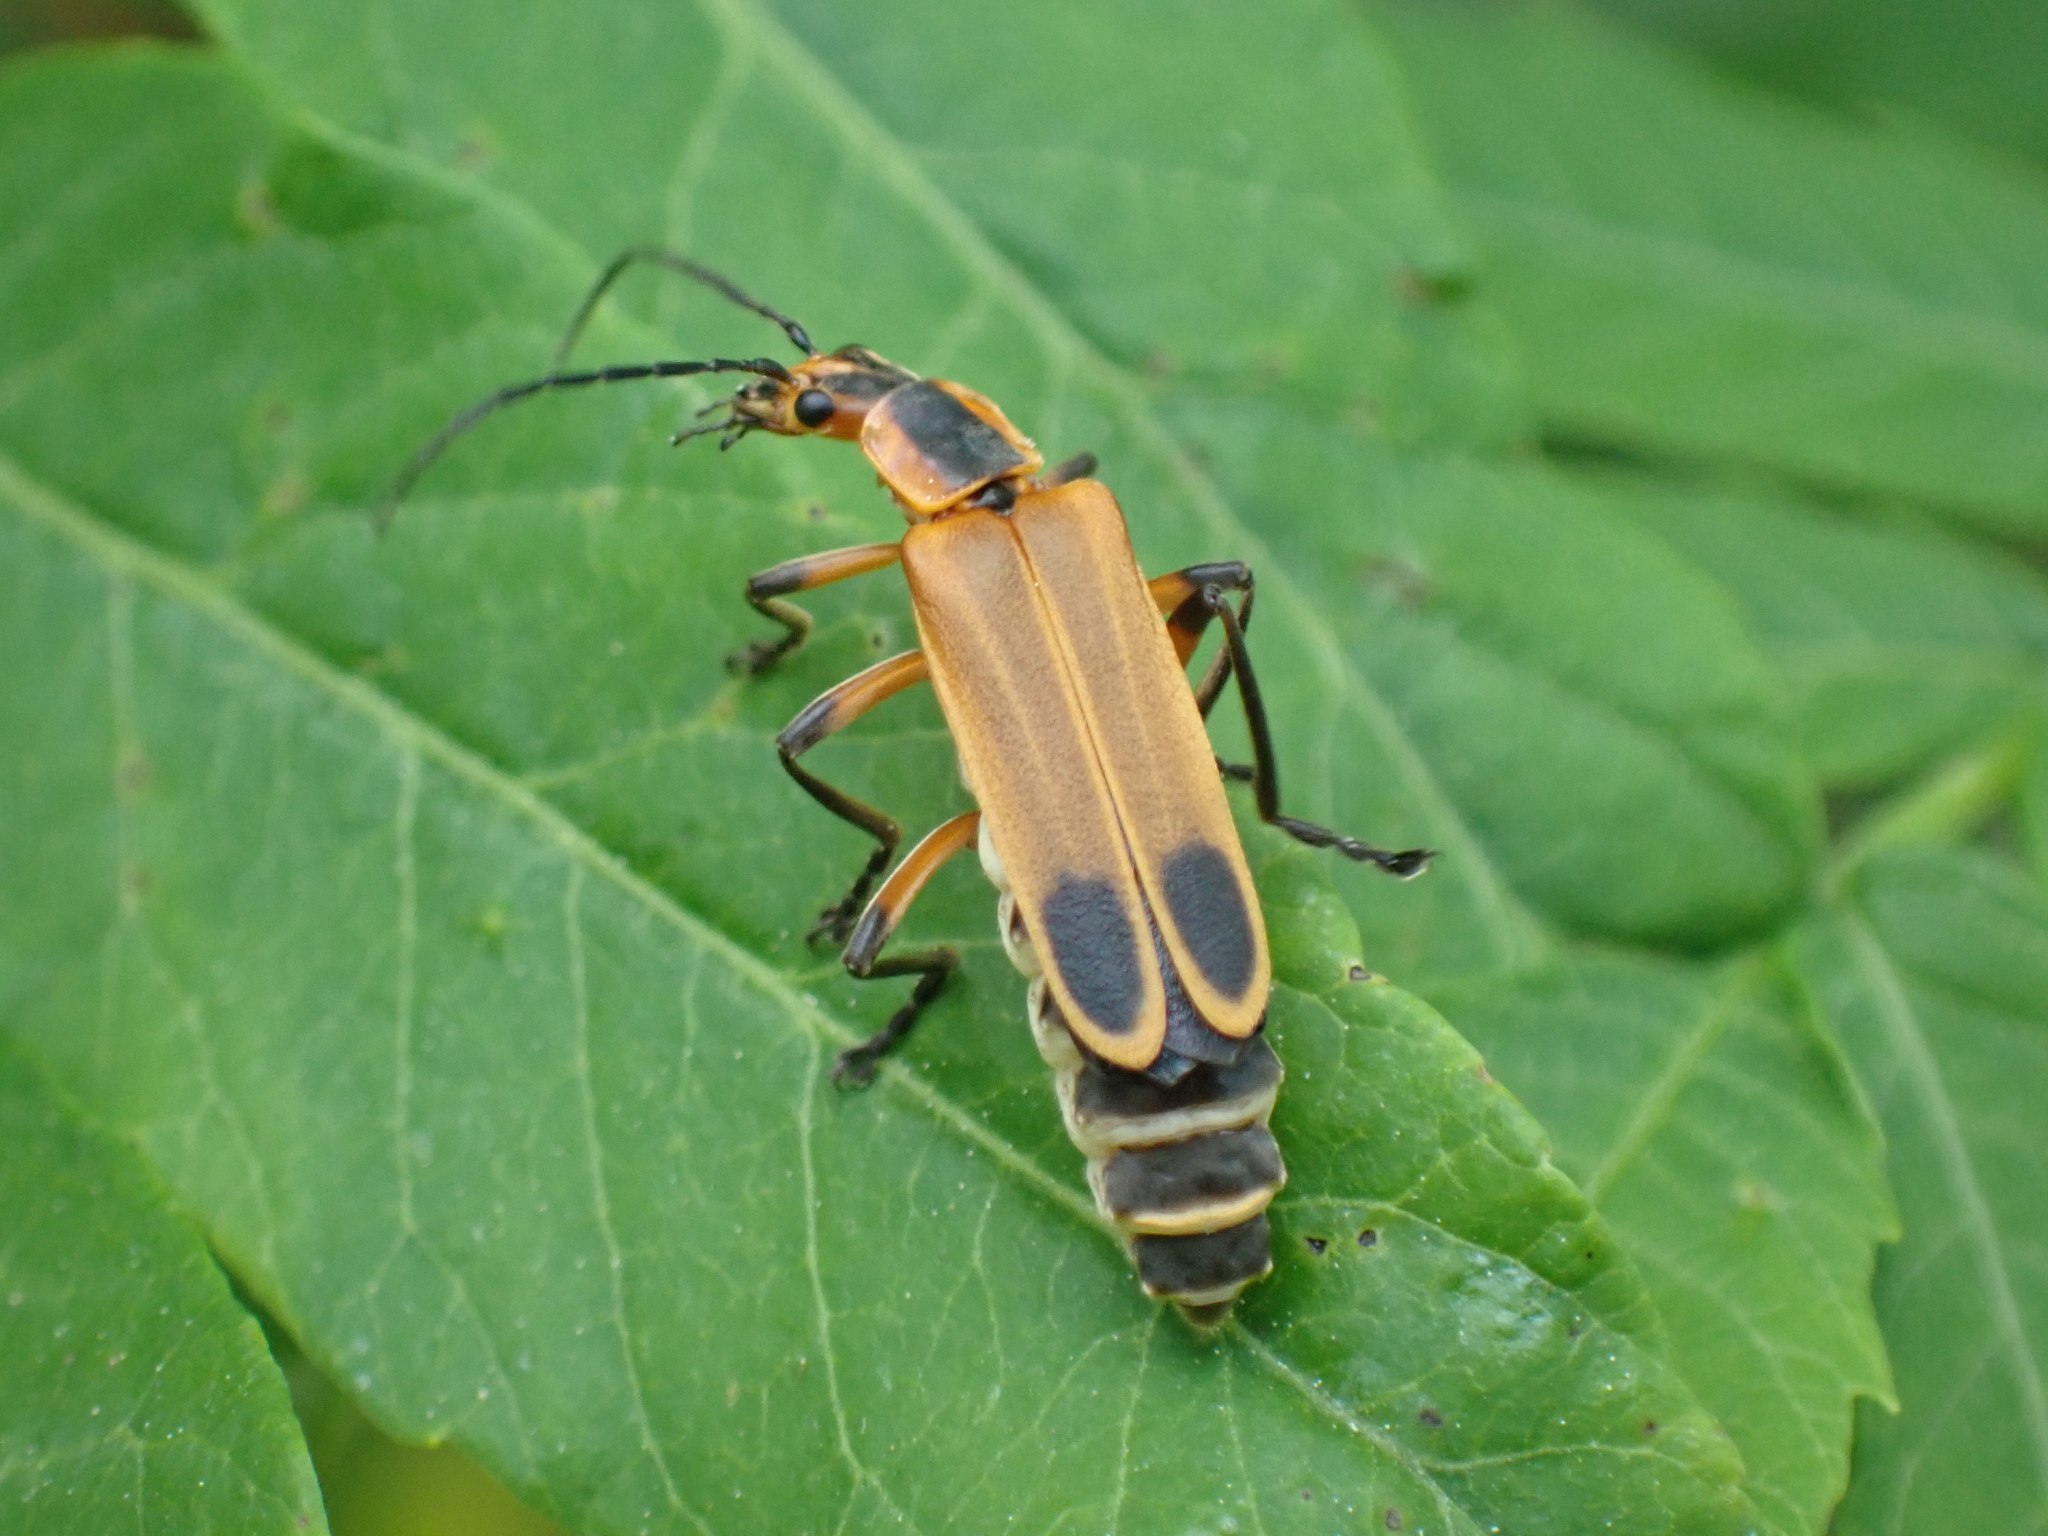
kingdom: Animalia
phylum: Arthropoda
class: Insecta
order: Coleoptera
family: Cantharidae
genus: Chauliognathus
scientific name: Chauliognathus marginatus
